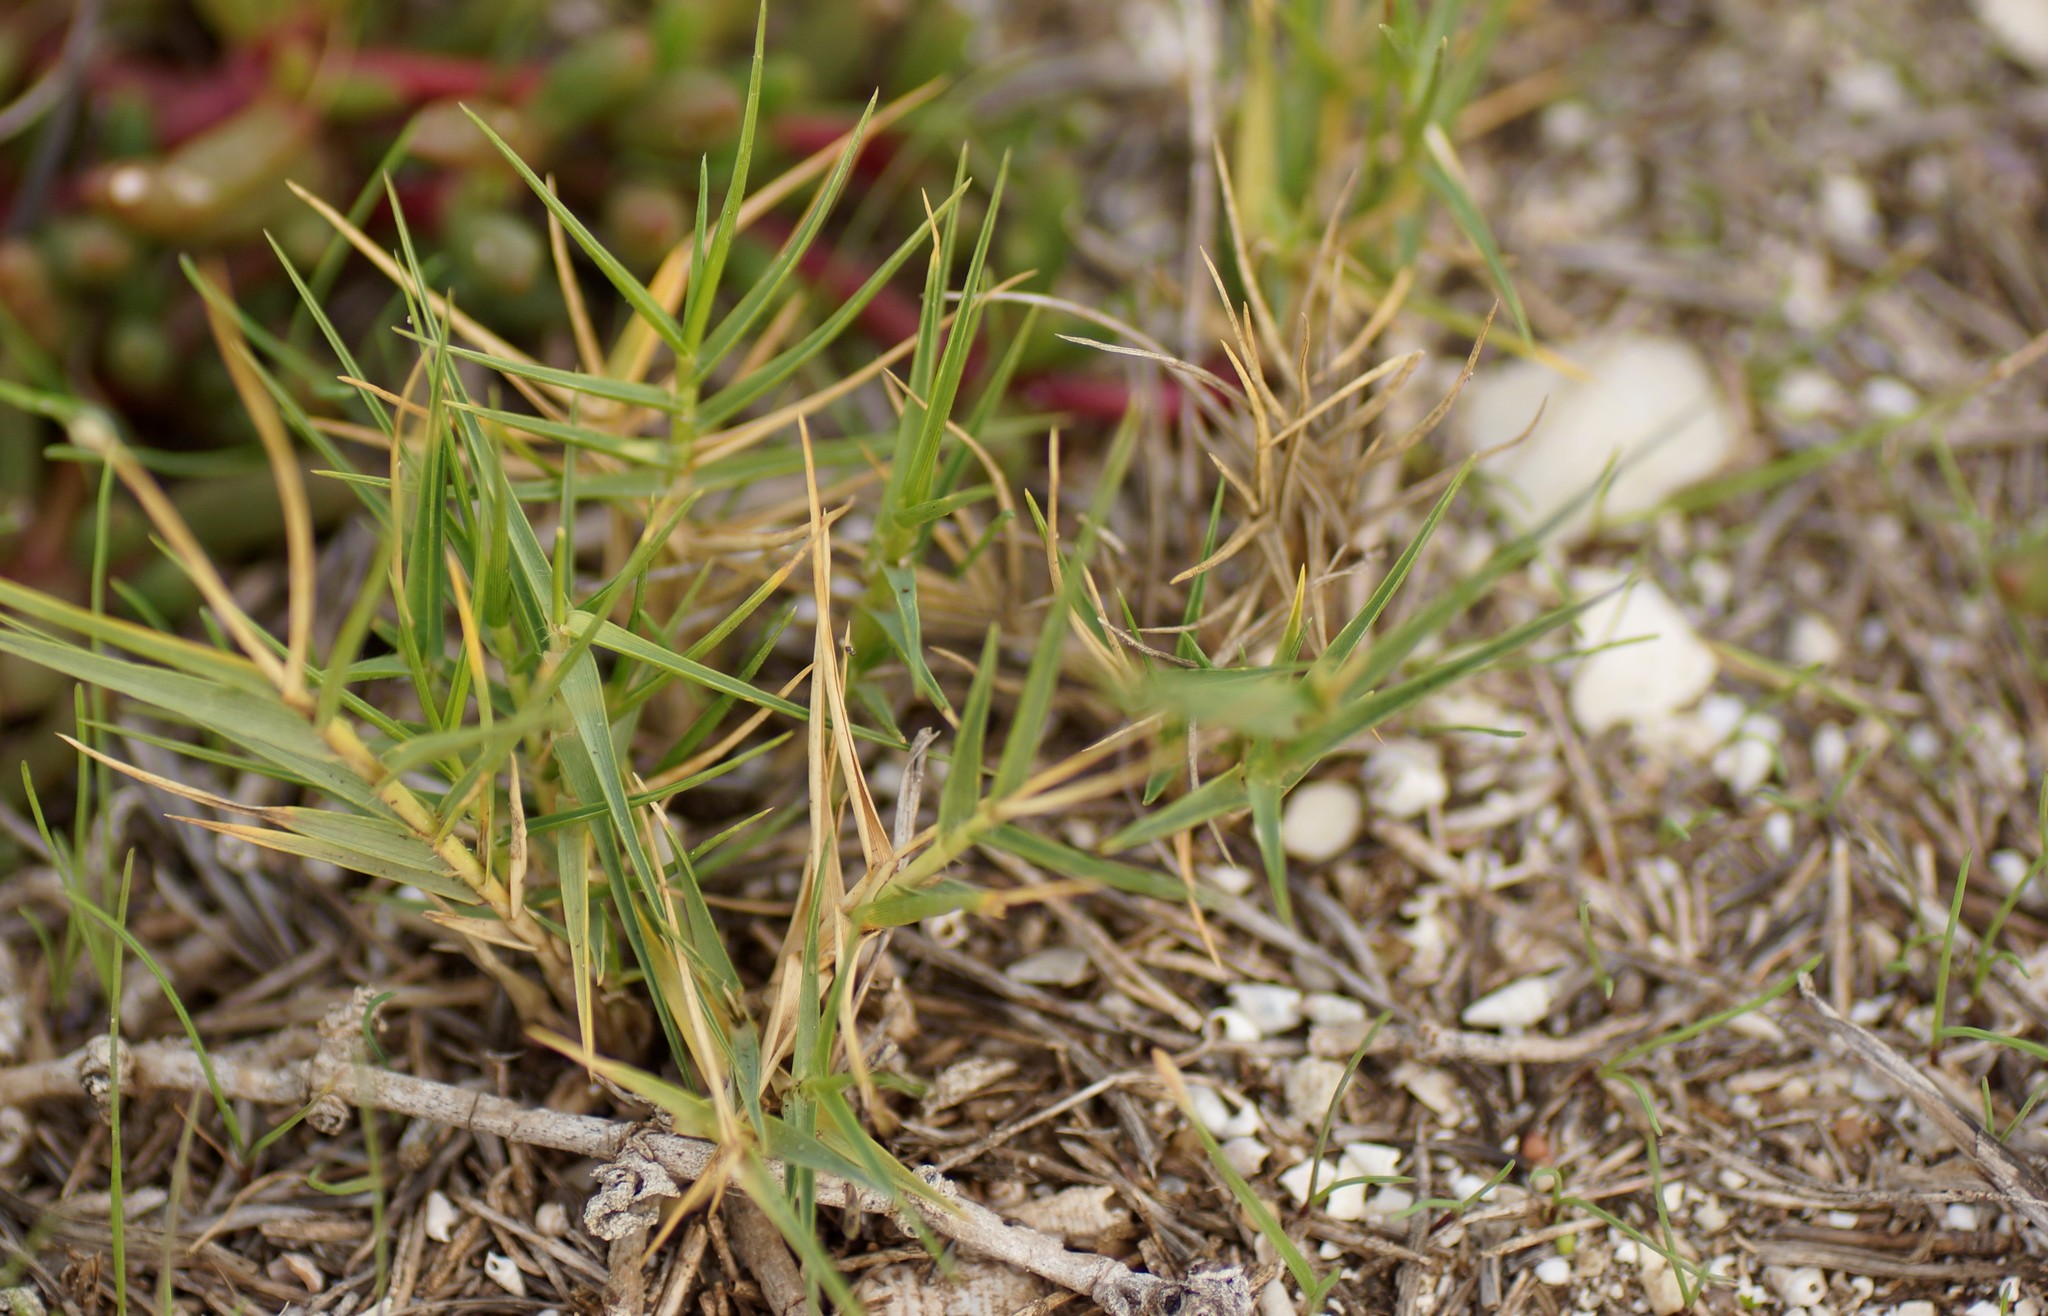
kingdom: Plantae
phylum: Tracheophyta
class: Liliopsida
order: Poales
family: Poaceae
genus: Distichlis
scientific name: Distichlis distichophylla
